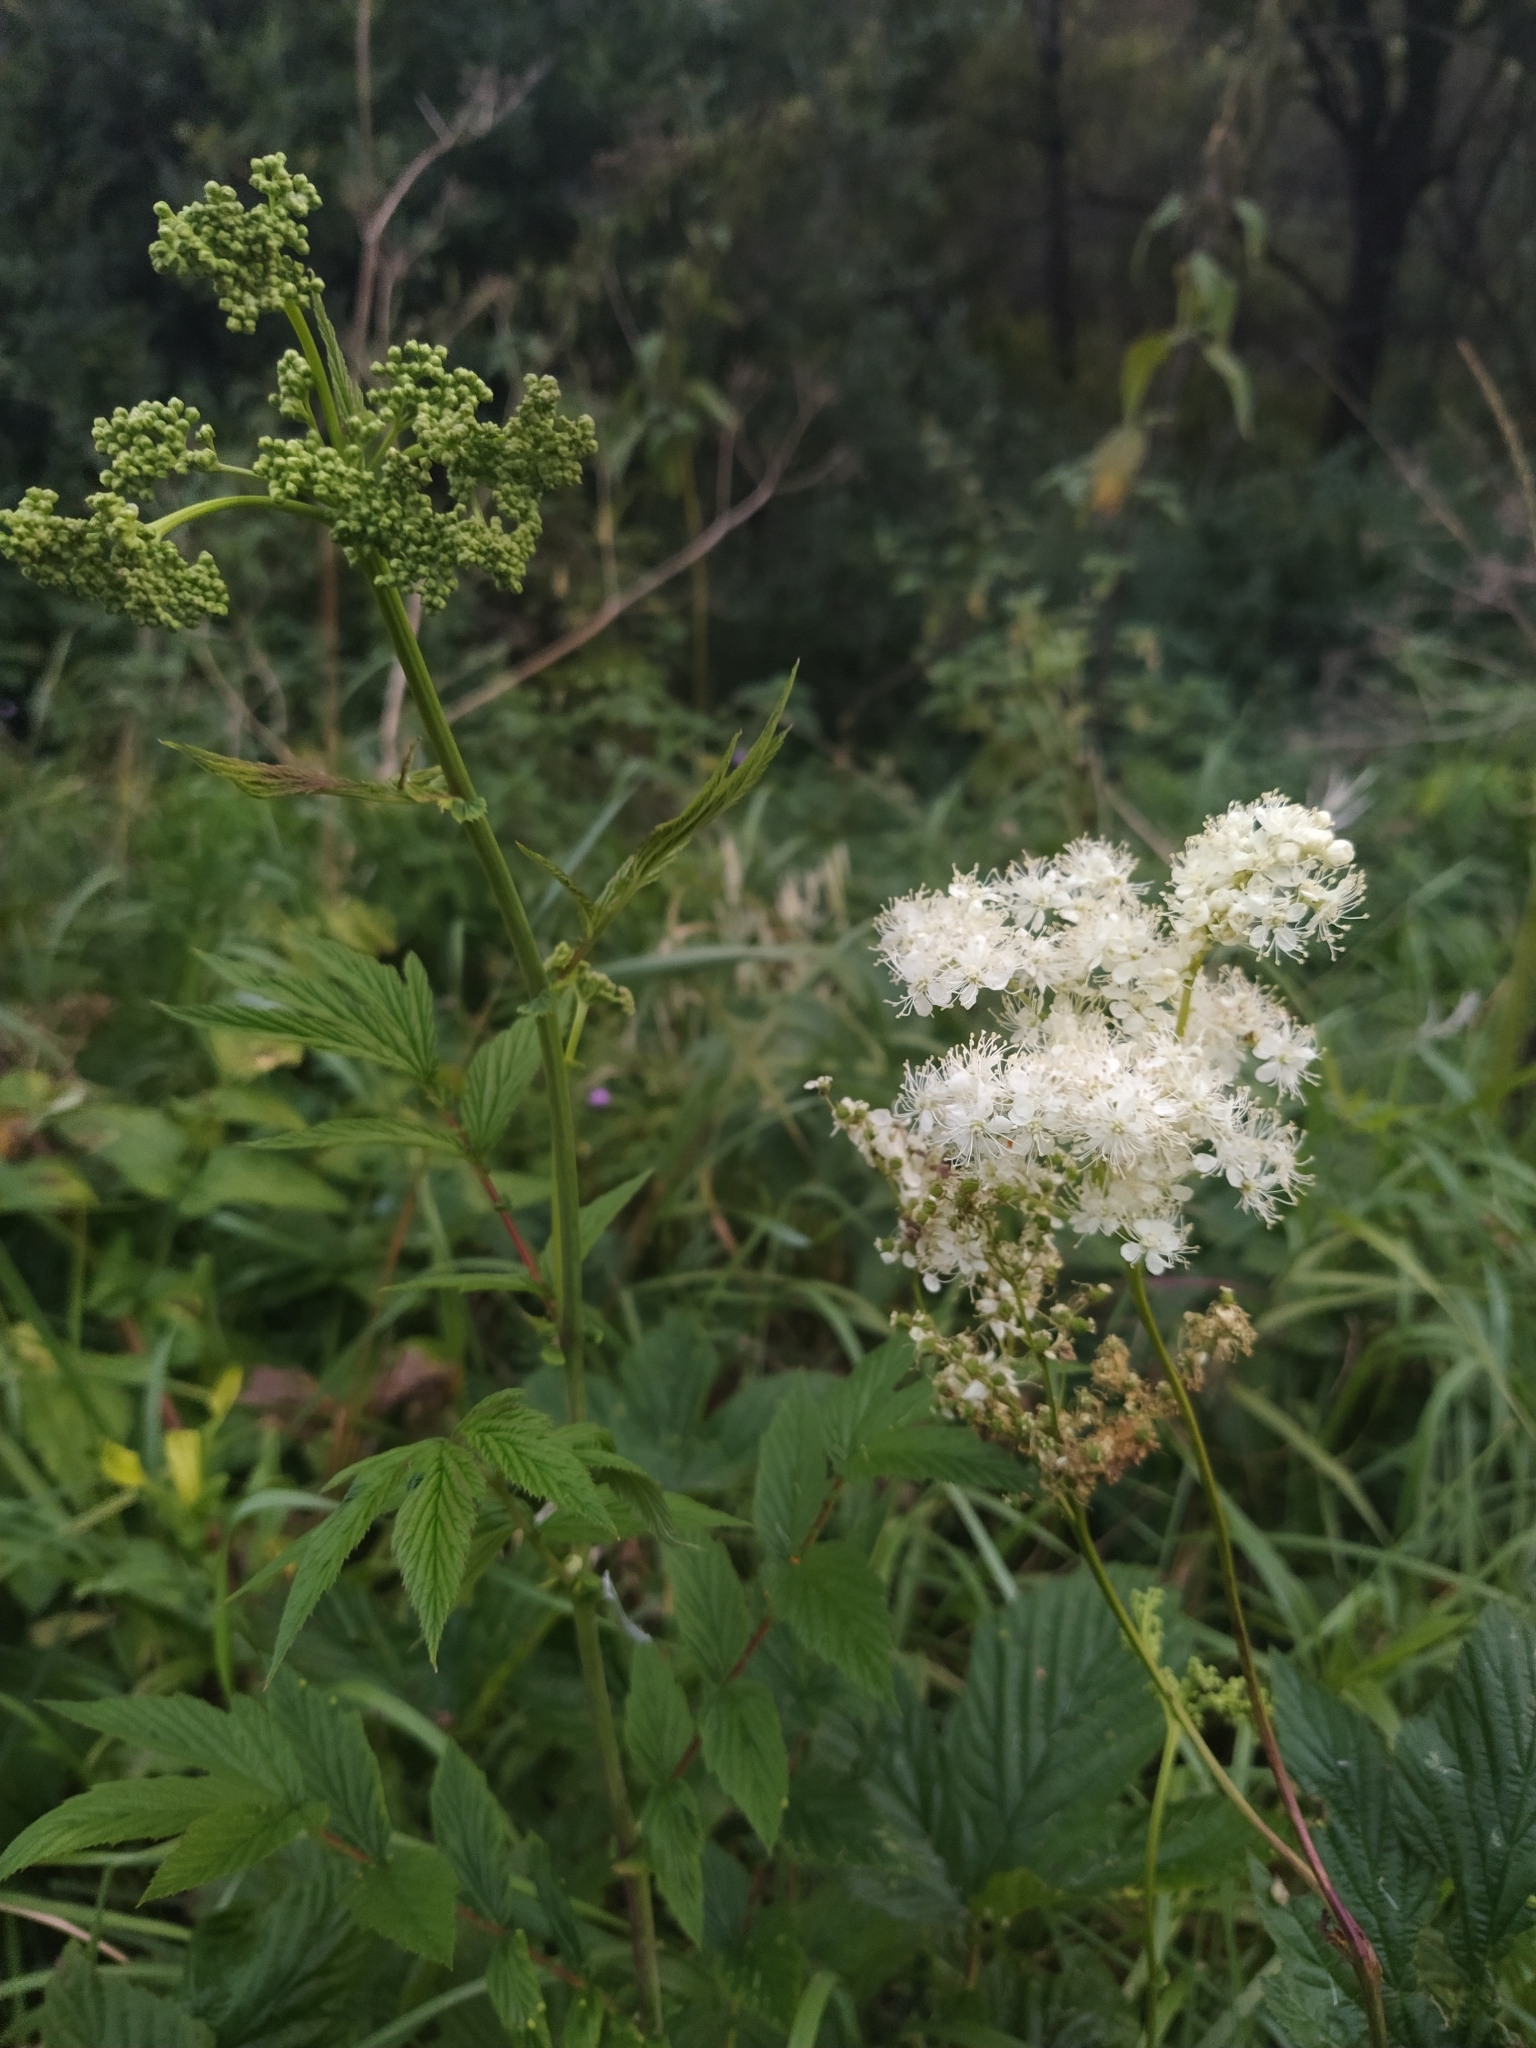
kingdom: Plantae
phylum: Tracheophyta
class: Magnoliopsida
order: Rosales
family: Rosaceae
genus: Filipendula
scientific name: Filipendula ulmaria
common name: Meadowsweet
